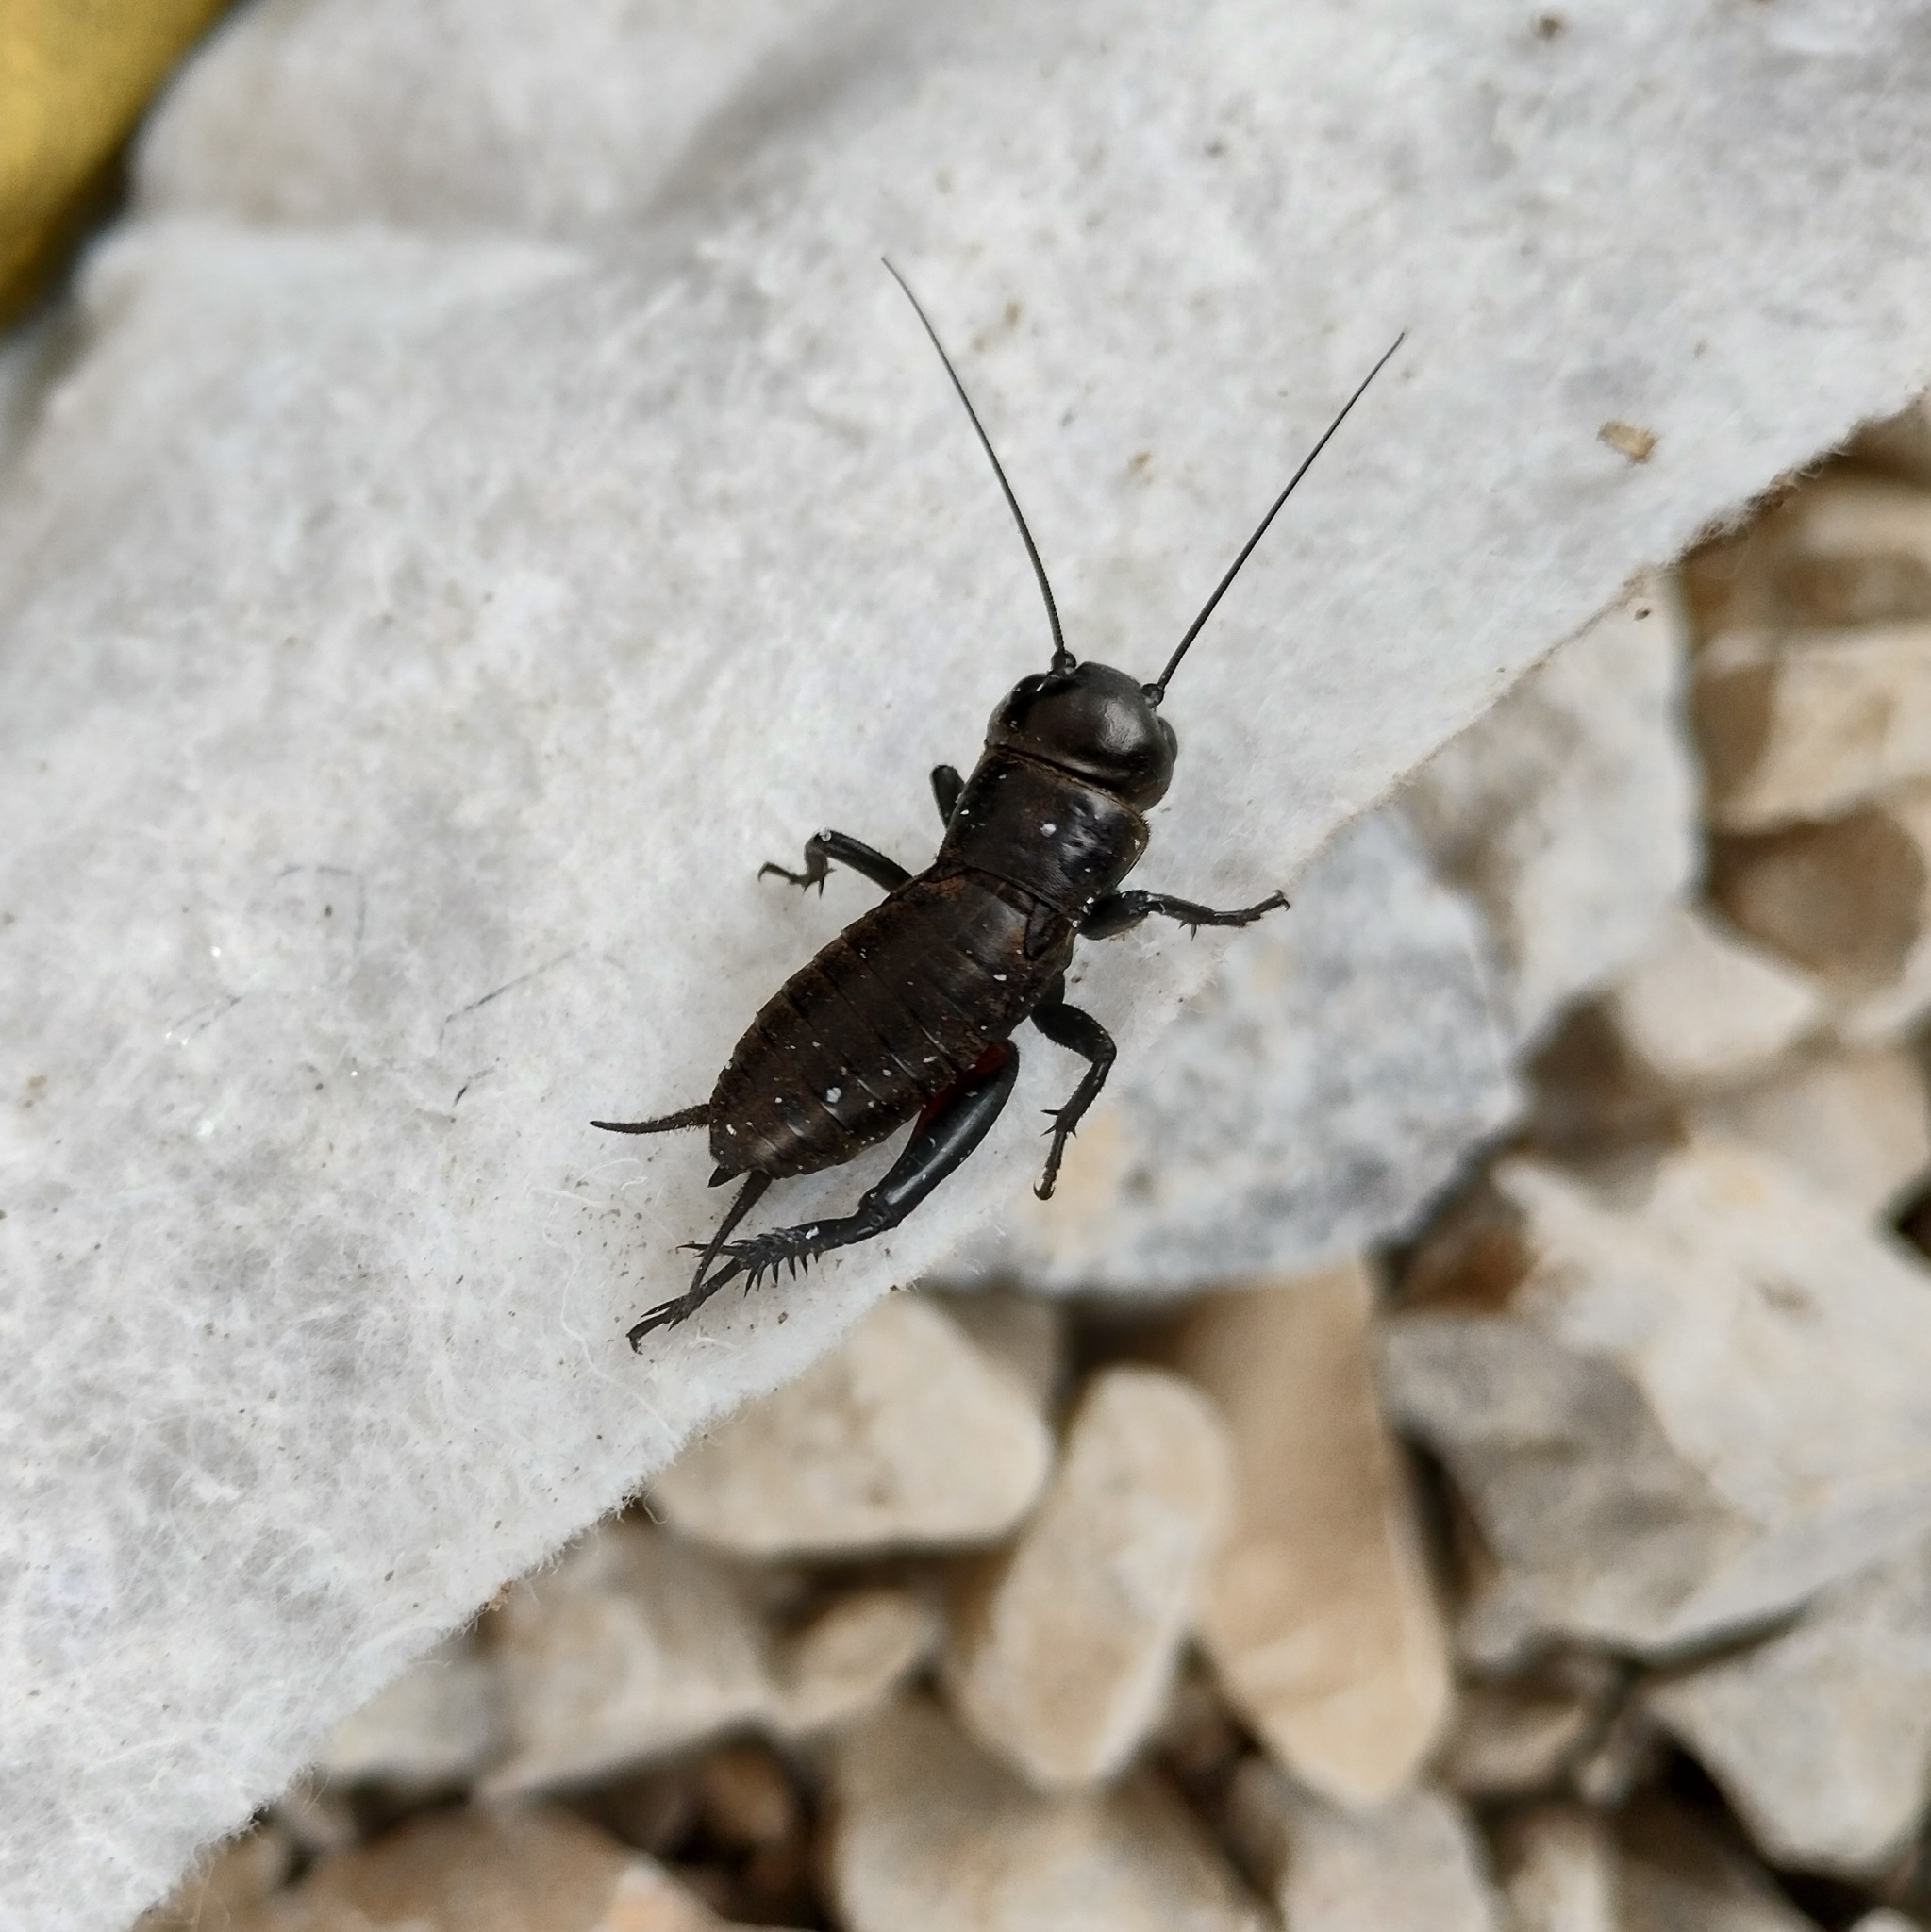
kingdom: Animalia
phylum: Arthropoda
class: Insecta
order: Orthoptera
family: Gryllidae
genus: Gryllus
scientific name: Gryllus campestris
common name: Field cricket
